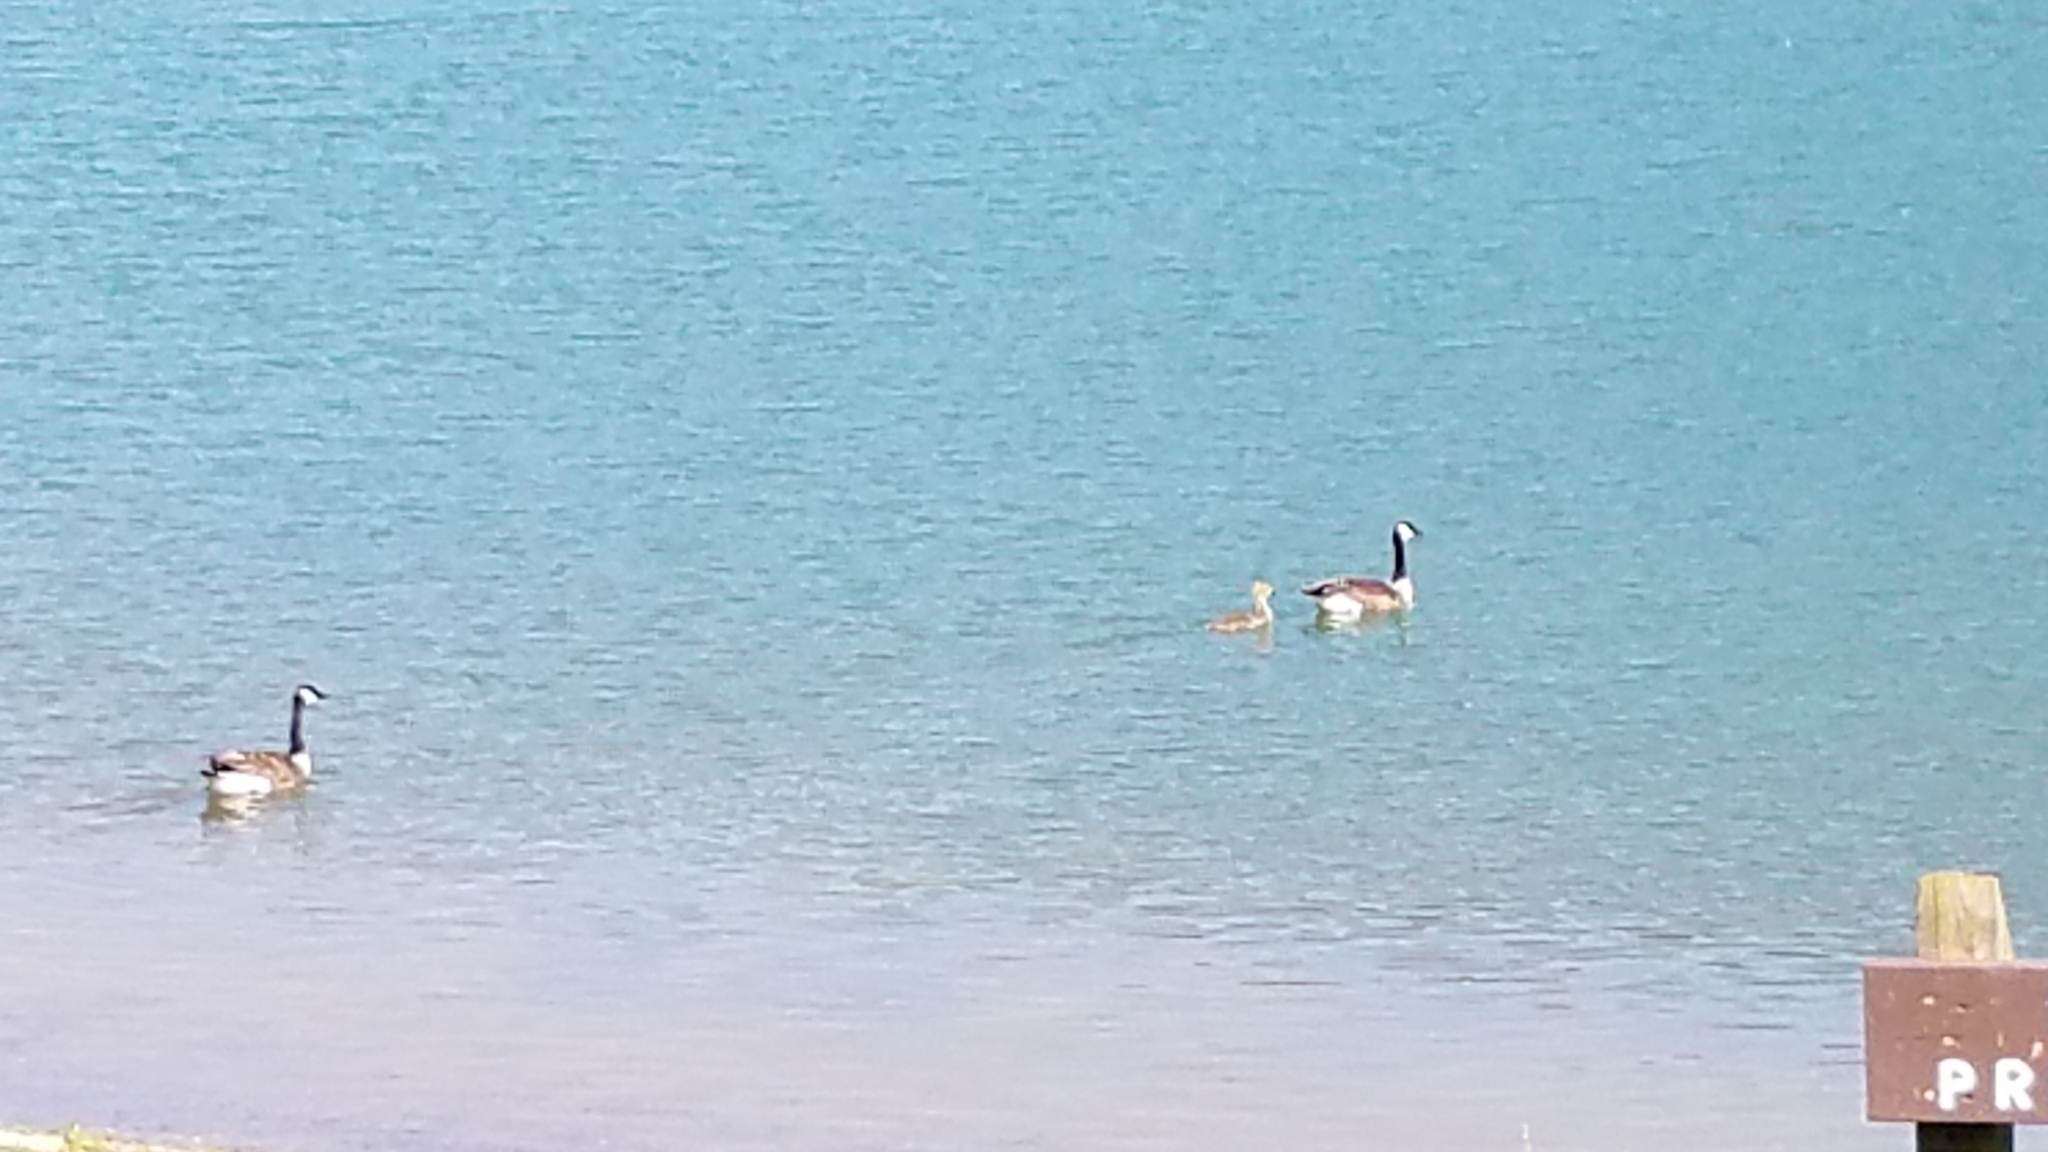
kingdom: Animalia
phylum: Chordata
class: Aves
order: Anseriformes
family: Anatidae
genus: Branta
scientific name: Branta canadensis
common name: Canada goose
